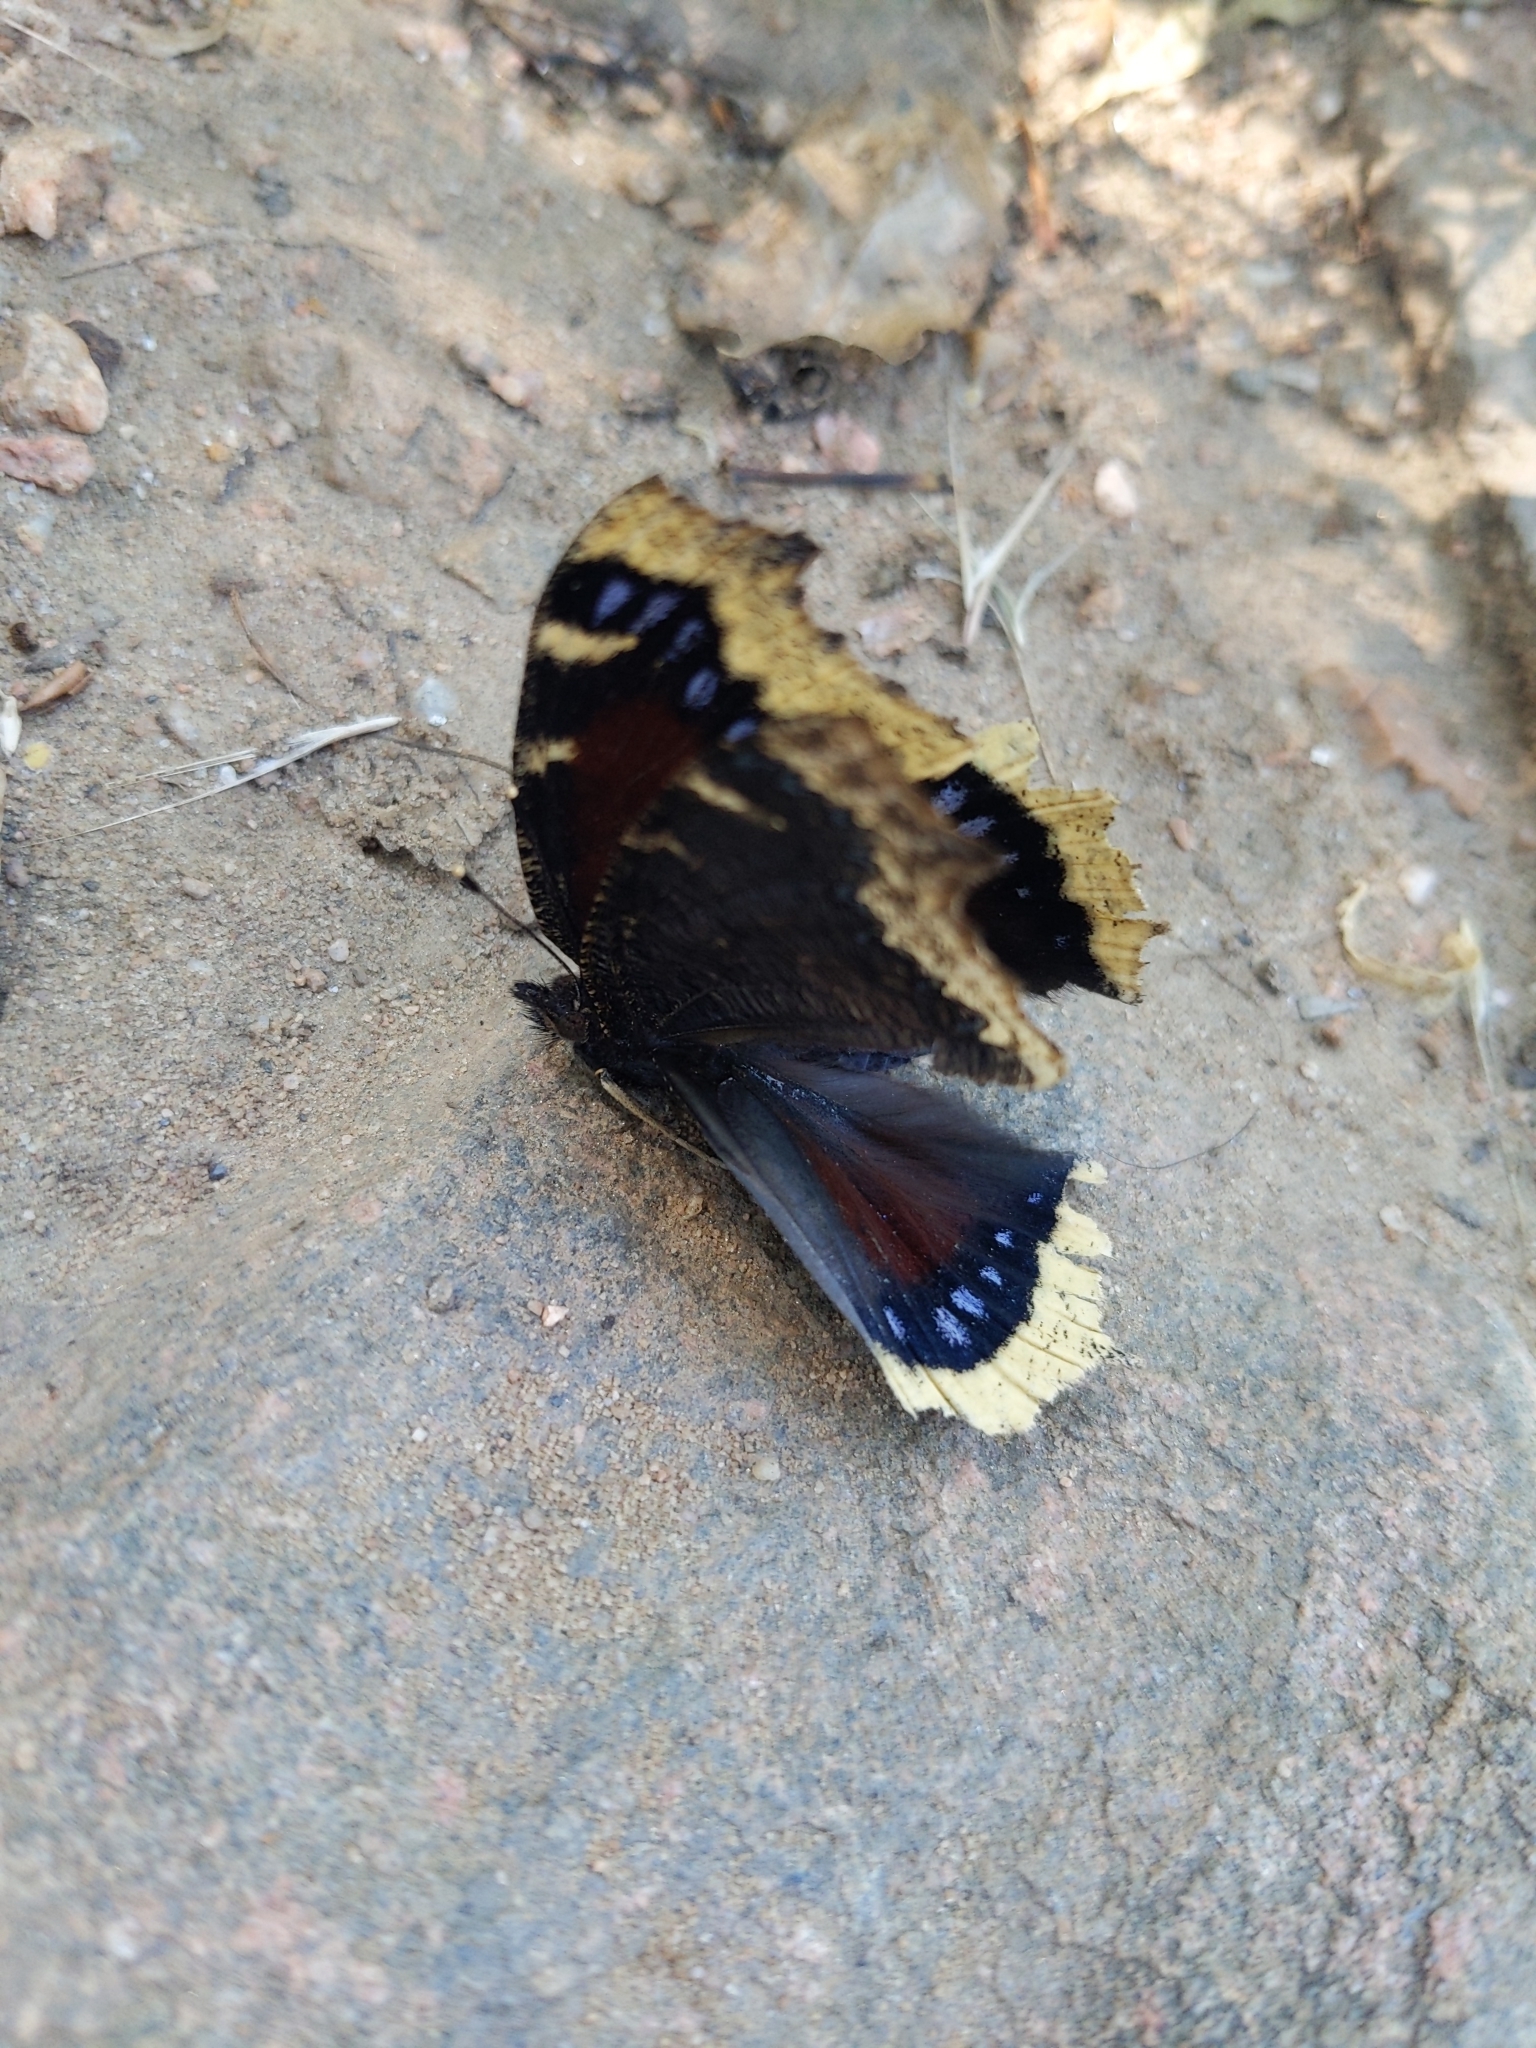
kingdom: Animalia
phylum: Arthropoda
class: Insecta
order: Lepidoptera
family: Nymphalidae
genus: Nymphalis
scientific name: Nymphalis antiopa
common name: Camberwell beauty
